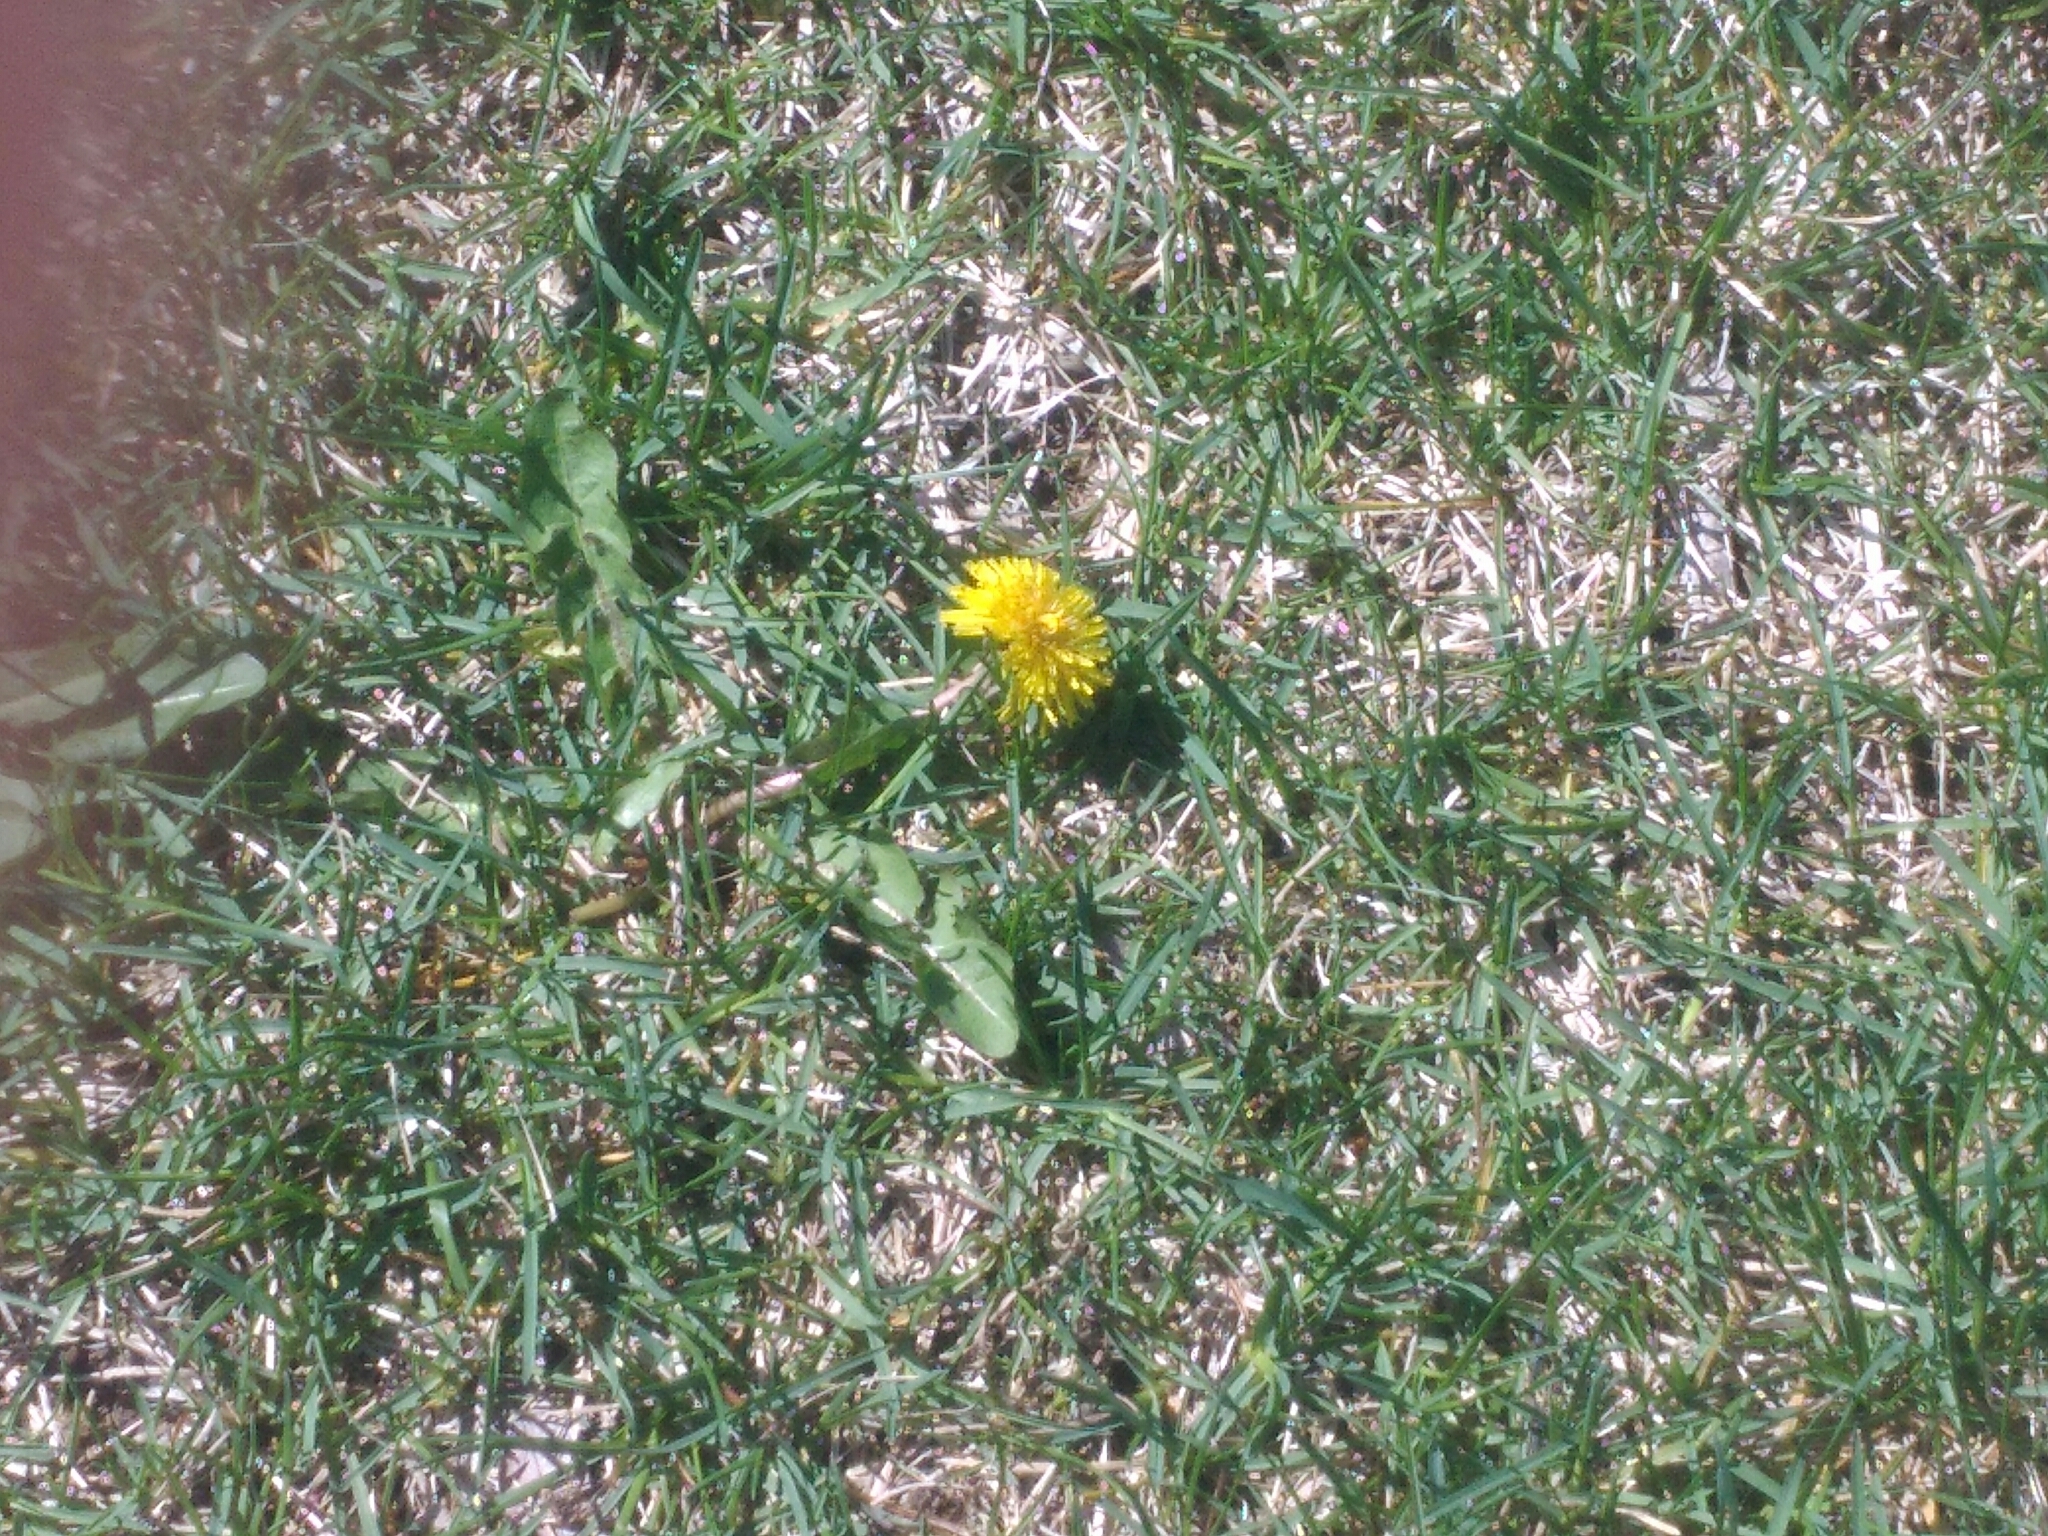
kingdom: Plantae
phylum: Tracheophyta
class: Magnoliopsida
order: Asterales
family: Asteraceae
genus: Taraxacum
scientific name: Taraxacum officinale
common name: Common dandelion
